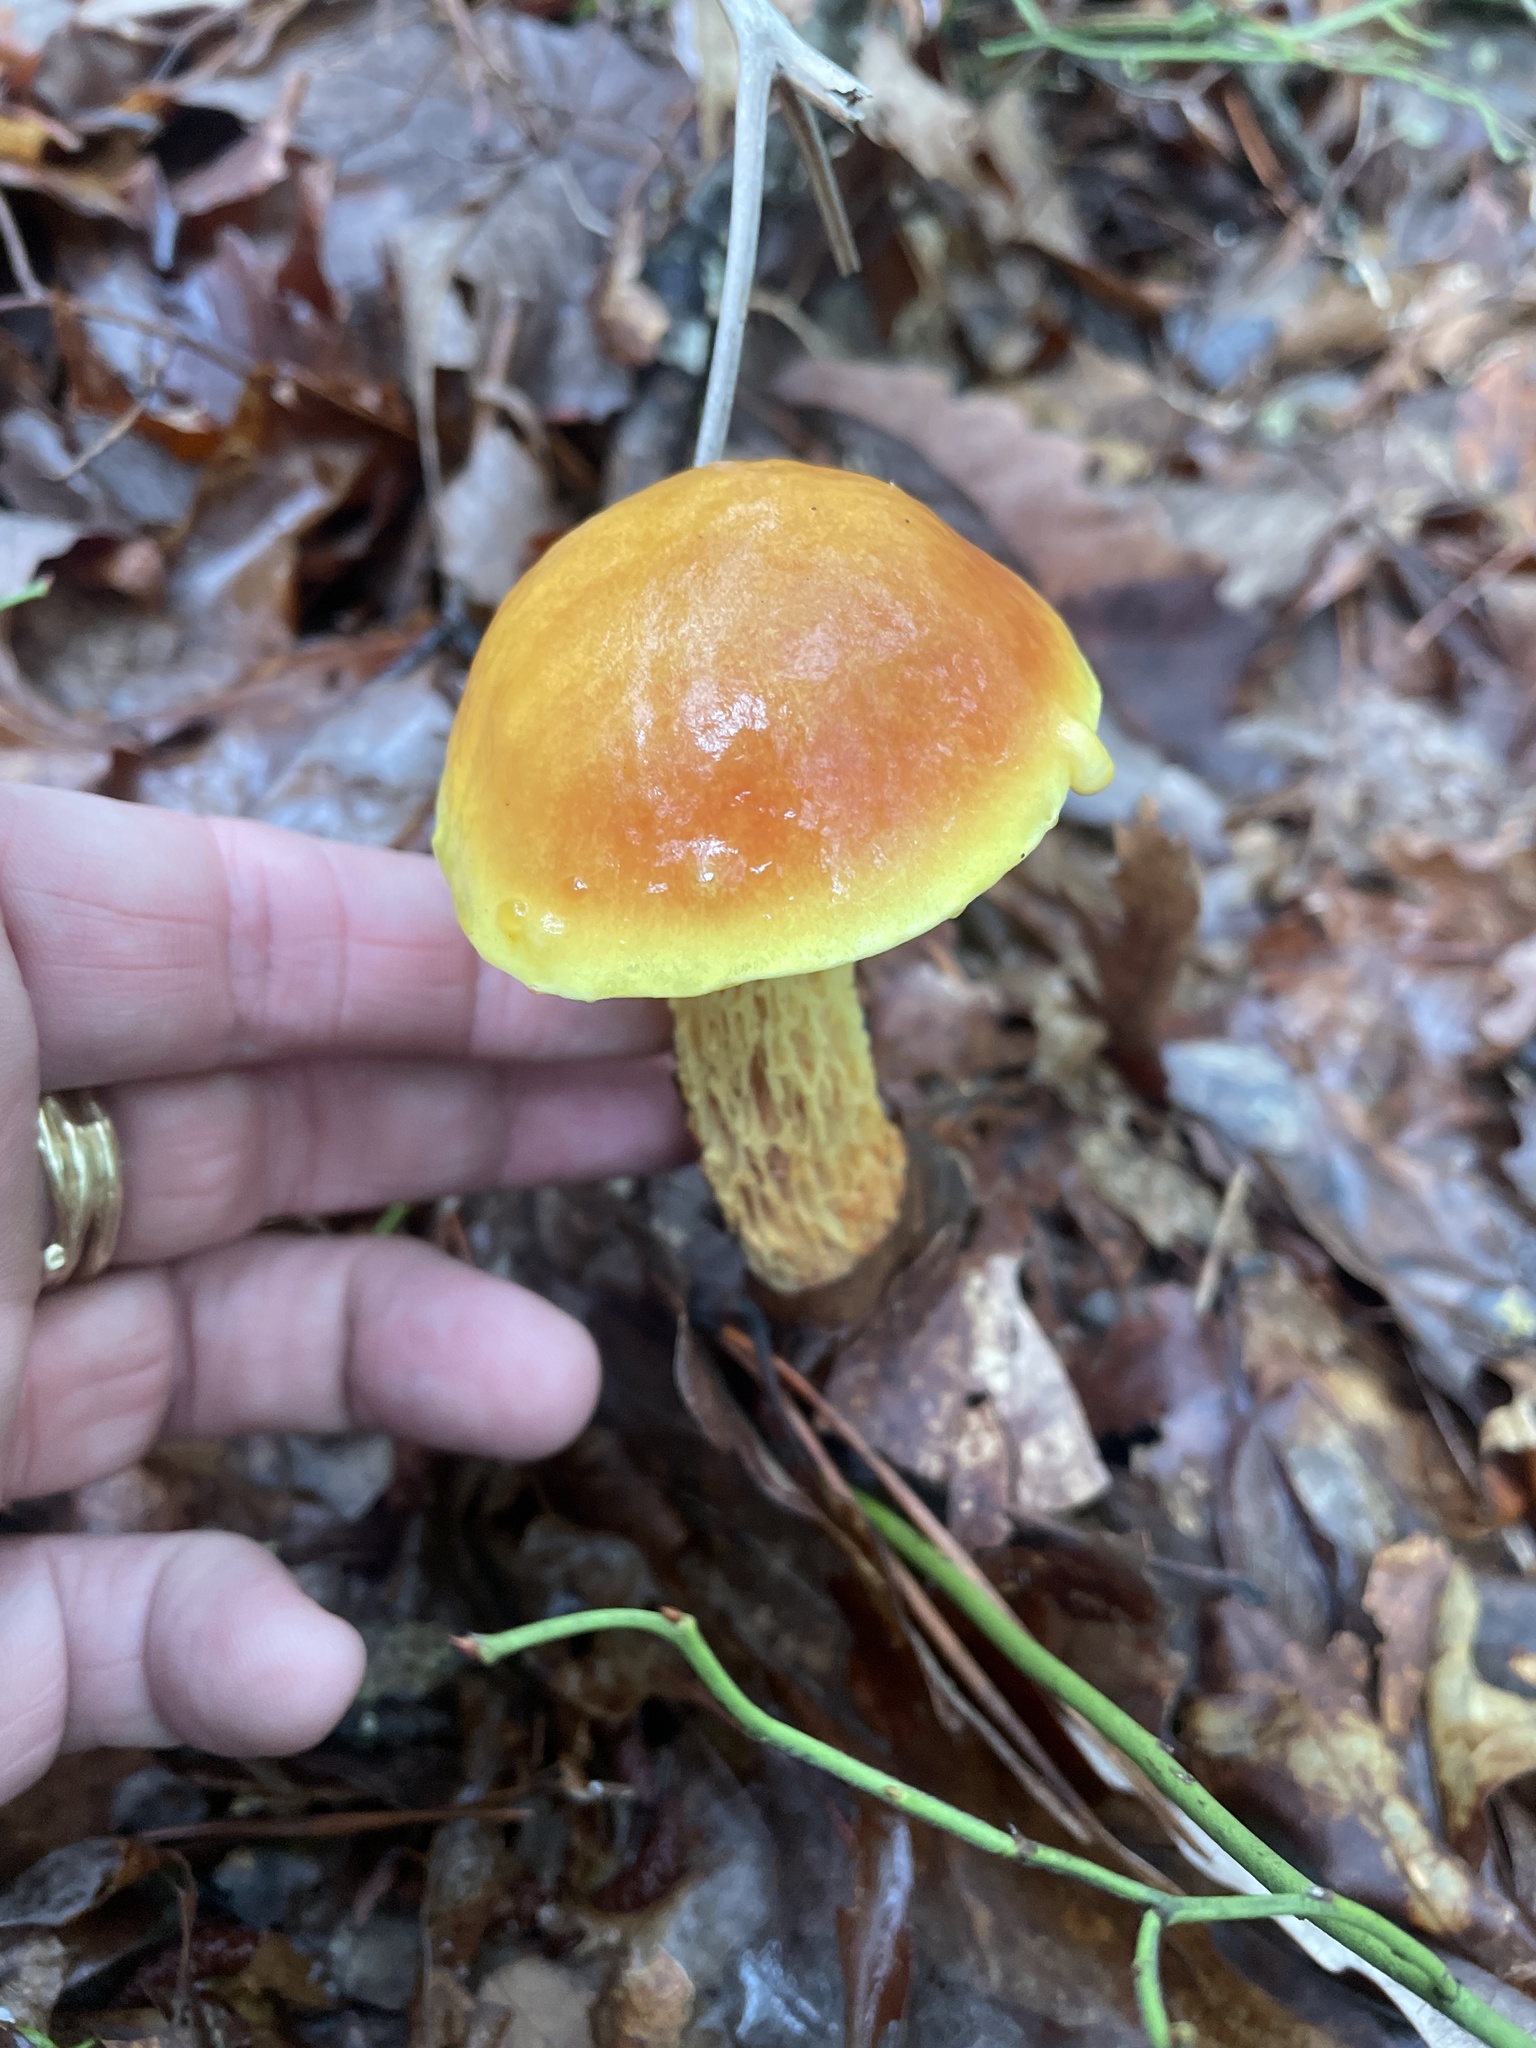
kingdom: Fungi
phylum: Basidiomycota
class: Agaricomycetes
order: Boletales
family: Boletaceae
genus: Aureoboletus
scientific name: Aureoboletus betula
